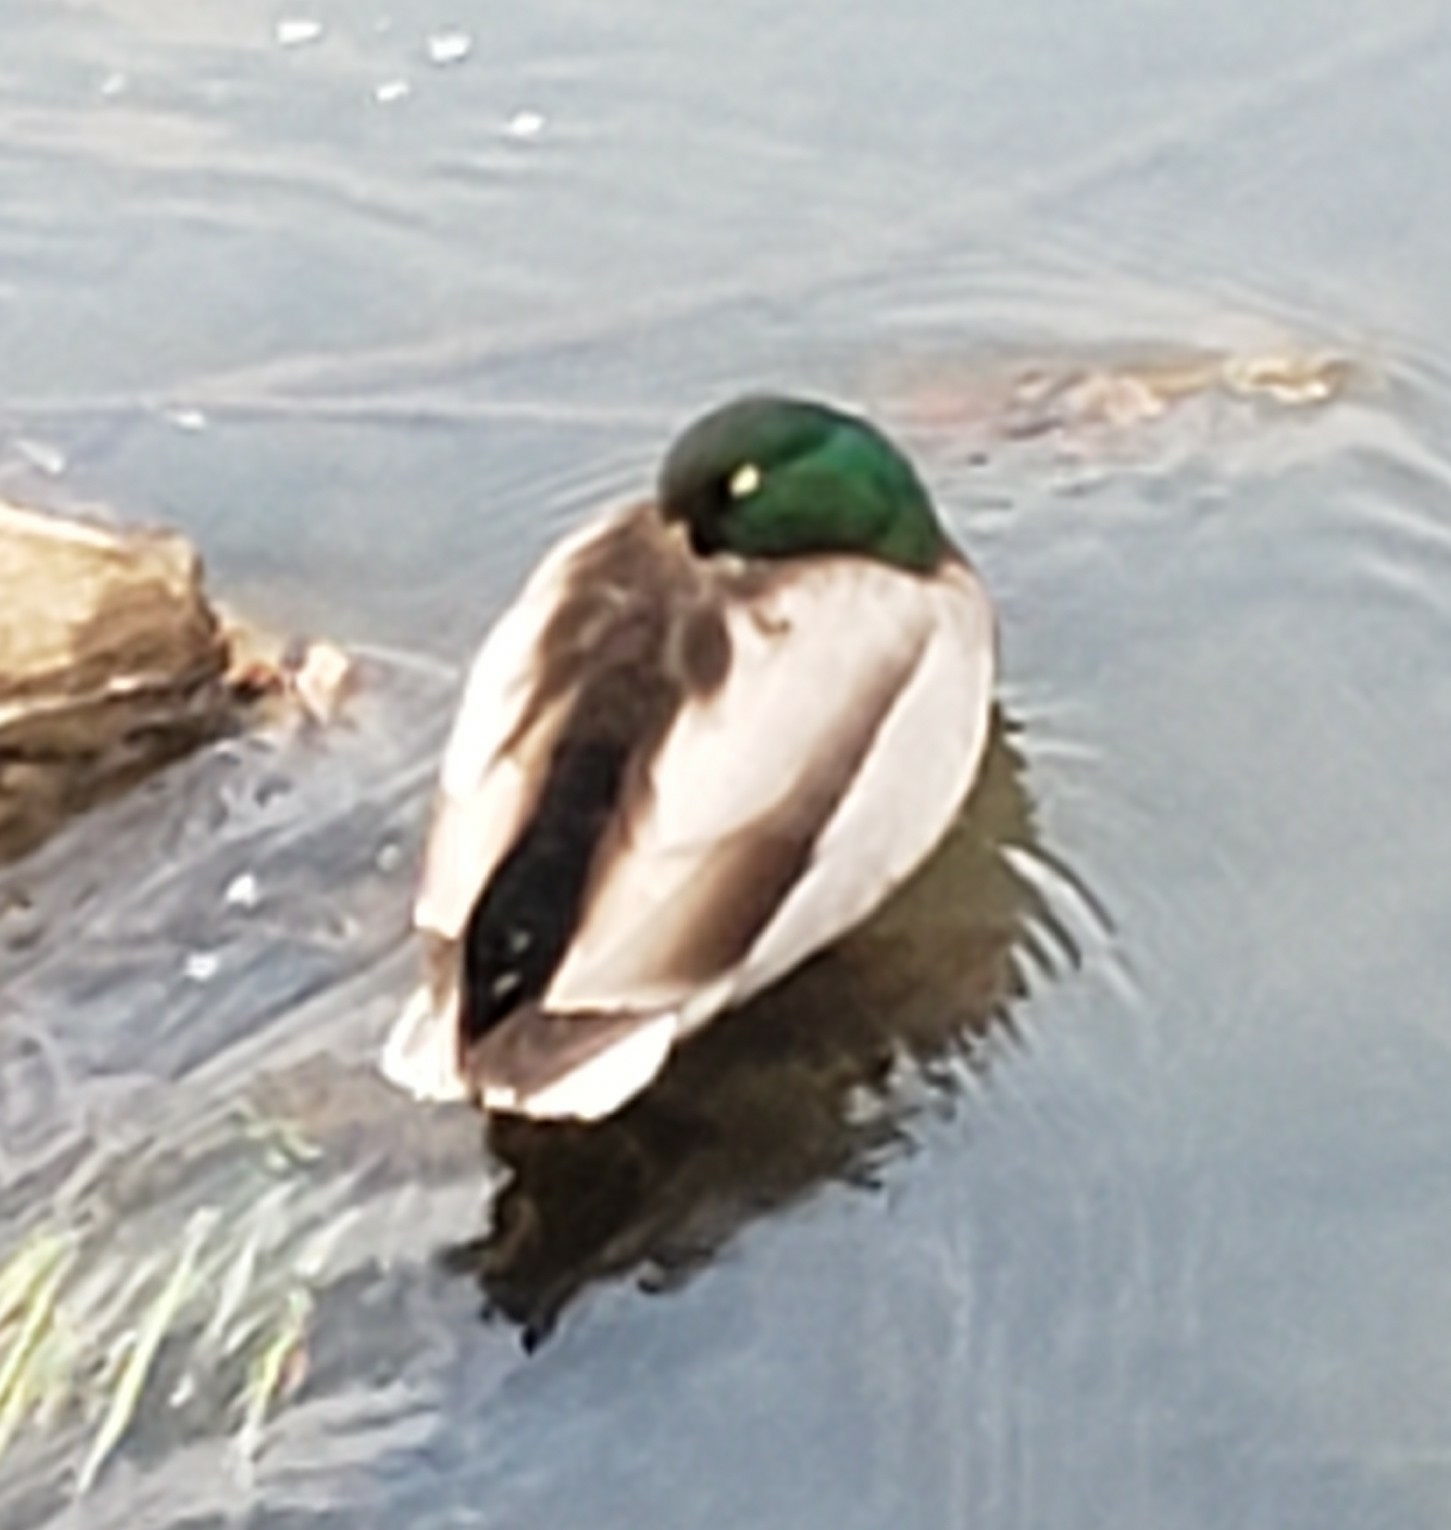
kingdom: Animalia
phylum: Chordata
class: Aves
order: Anseriformes
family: Anatidae
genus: Anas
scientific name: Anas platyrhynchos
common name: Mallard
